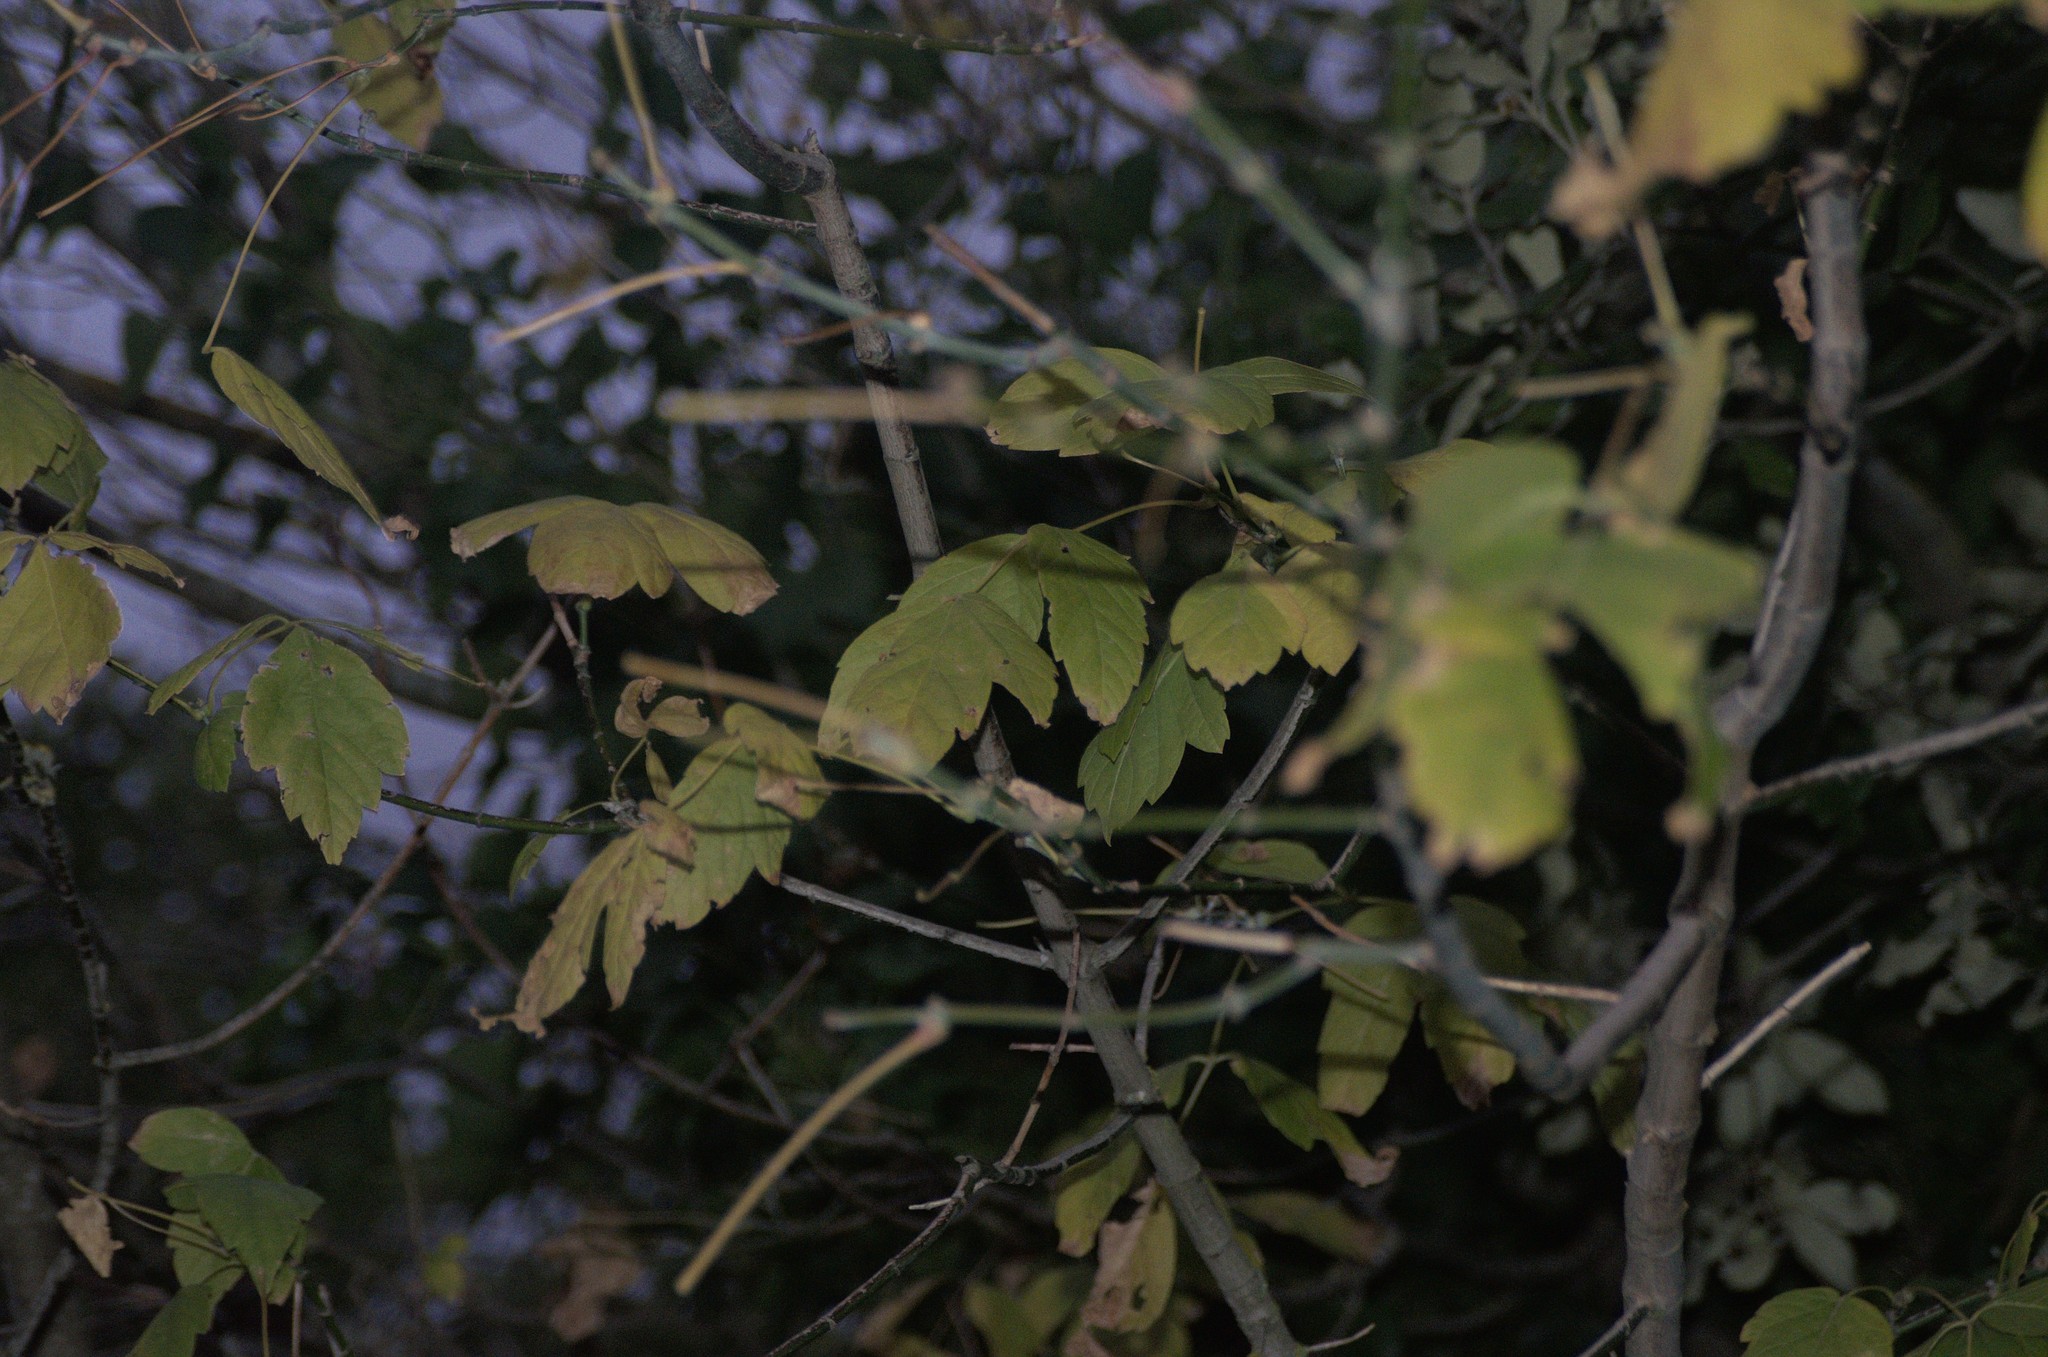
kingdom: Plantae
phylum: Tracheophyta
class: Magnoliopsida
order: Sapindales
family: Sapindaceae
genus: Acer
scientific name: Acer negundo
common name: Ashleaf maple
